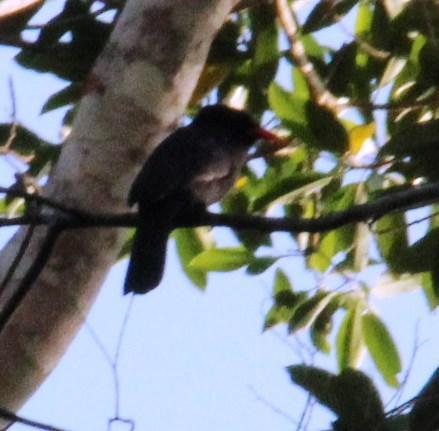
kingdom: Animalia
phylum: Chordata
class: Aves
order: Piciformes
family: Bucconidae
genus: Monasa
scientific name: Monasa nigrifrons
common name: Black-fronted nunbird
